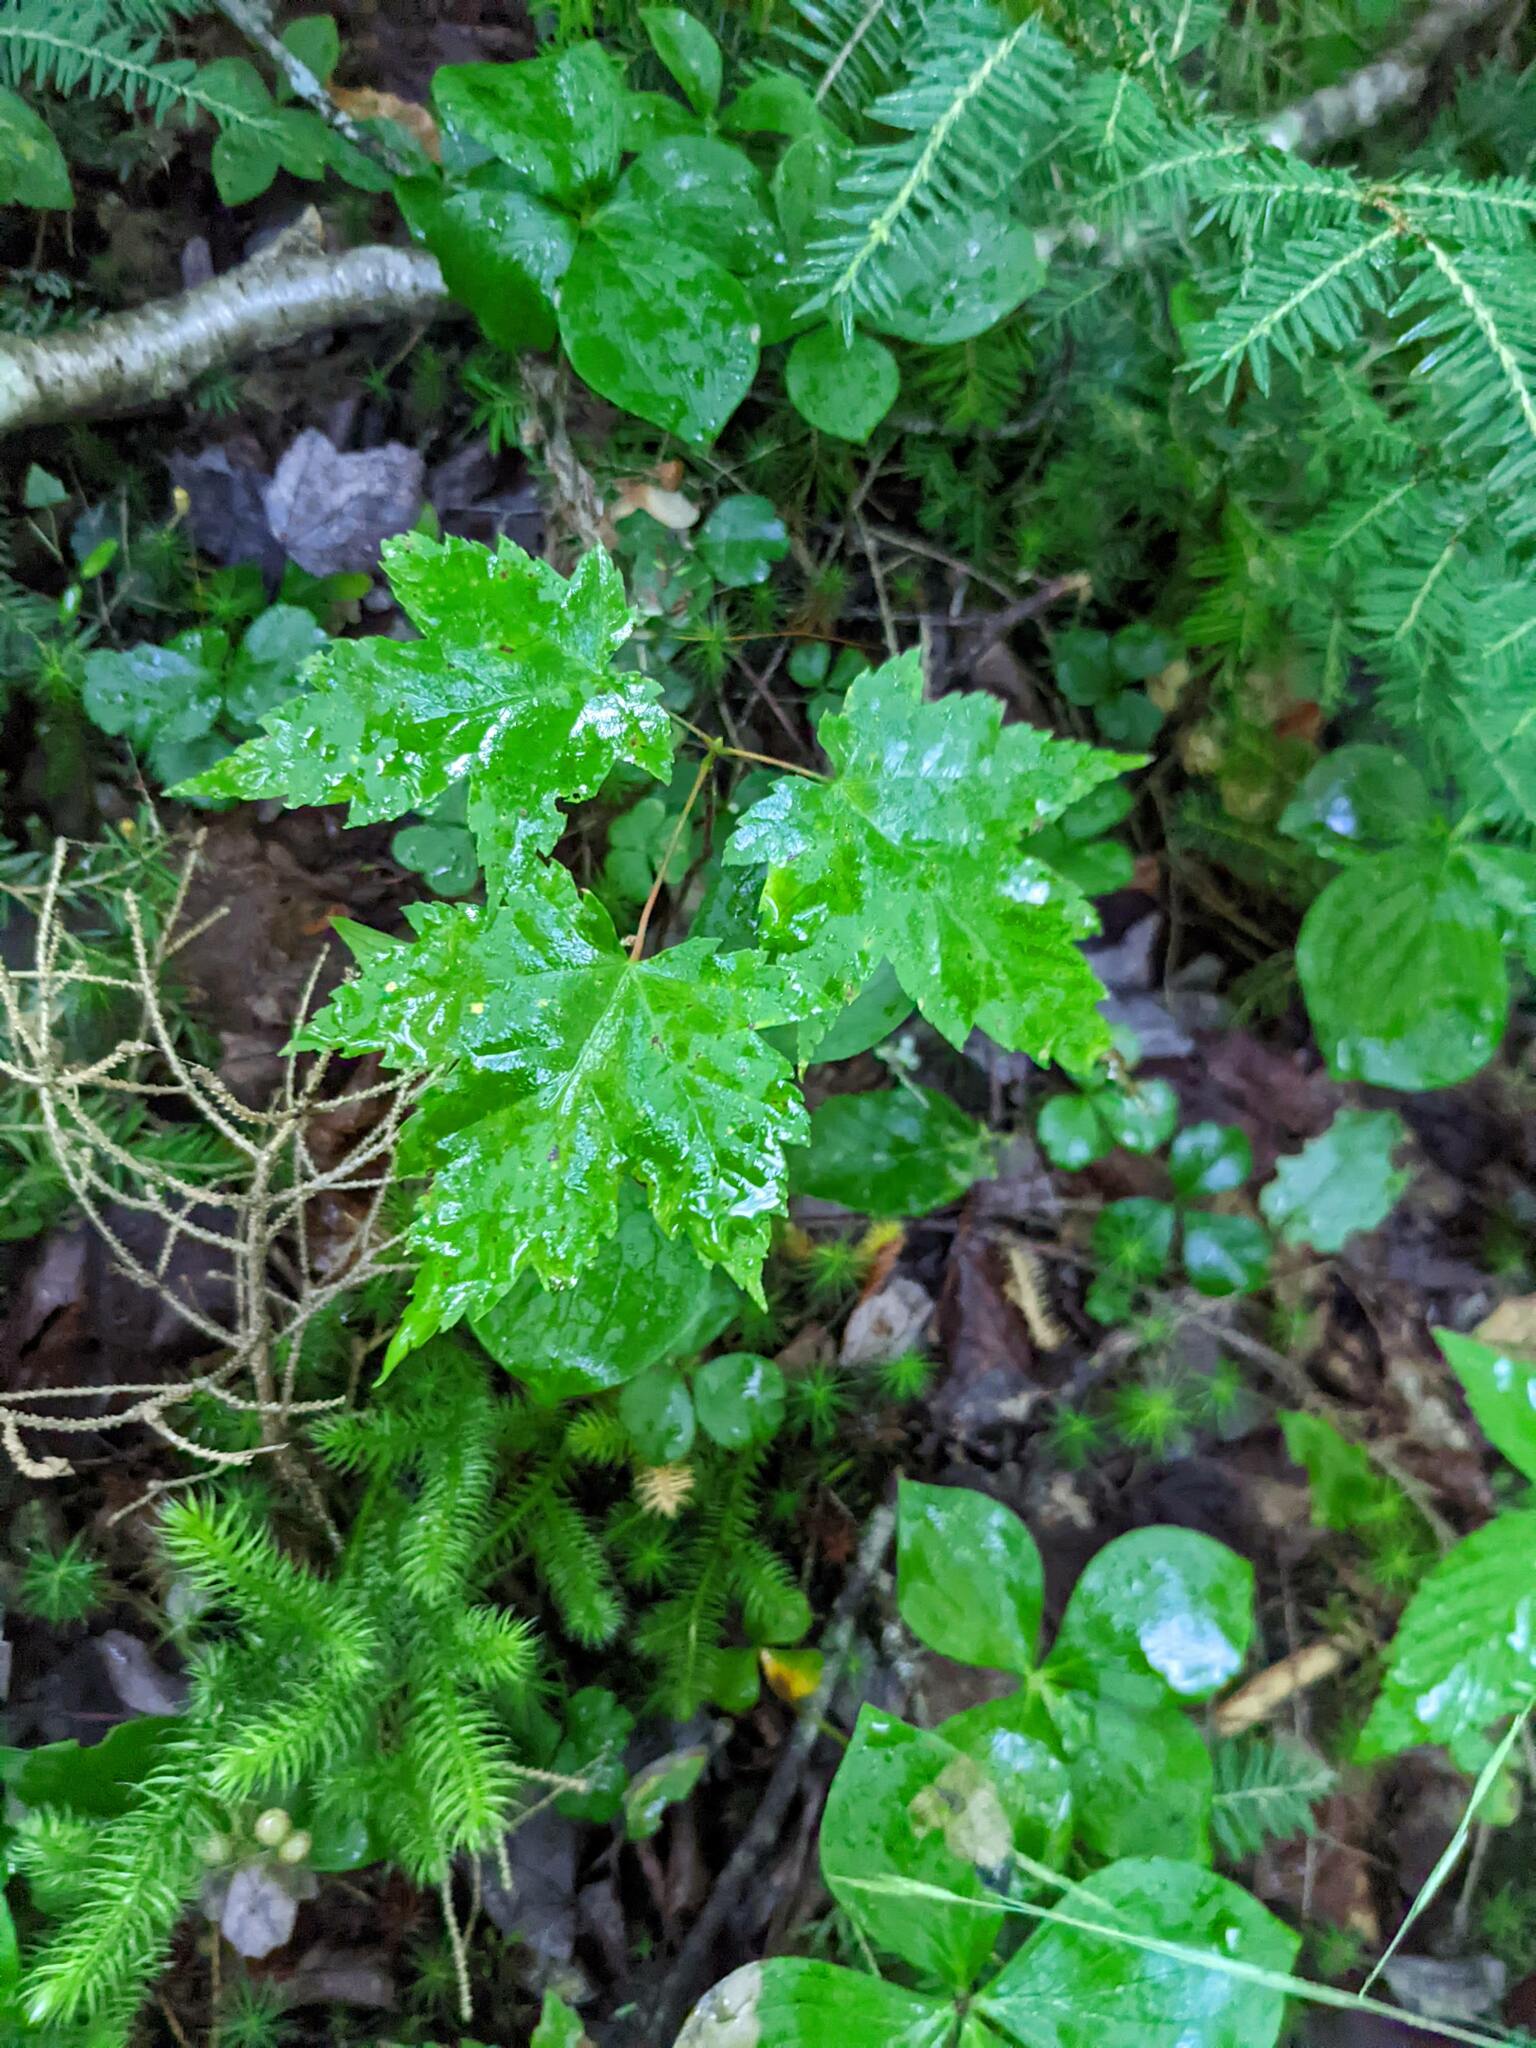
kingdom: Plantae
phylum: Tracheophyta
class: Magnoliopsida
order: Sapindales
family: Sapindaceae
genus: Acer
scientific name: Acer rubrum
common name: Red maple
